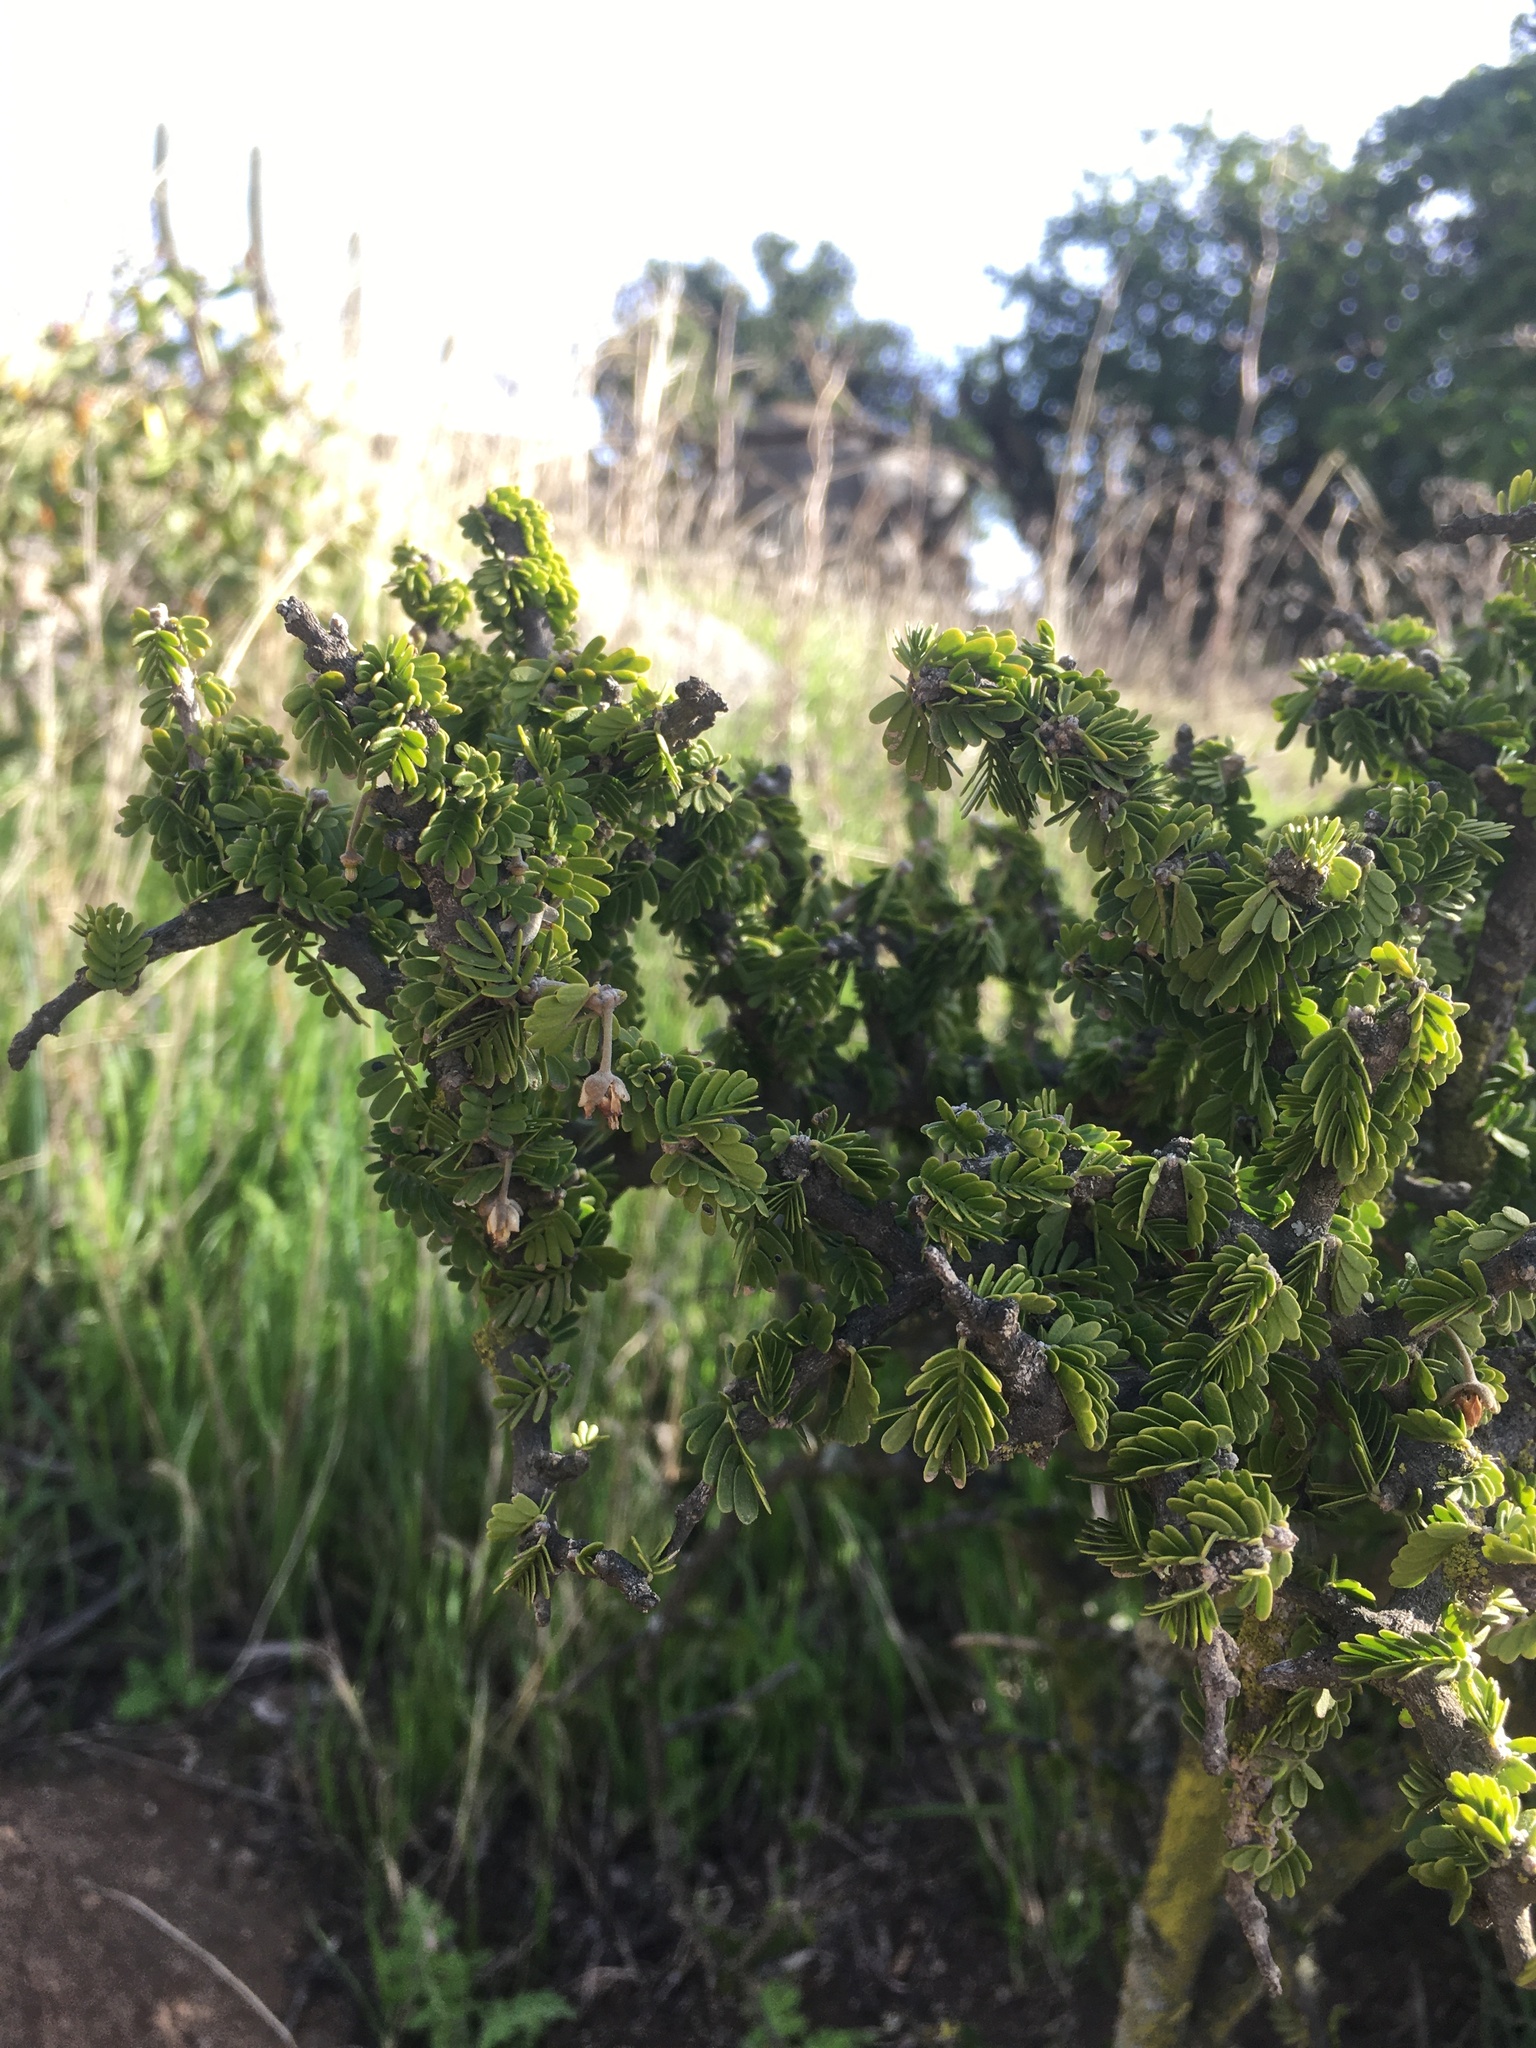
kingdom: Plantae
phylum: Tracheophyta
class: Magnoliopsida
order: Zygophyllales
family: Zygophyllaceae
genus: Porlieria
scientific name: Porlieria chilensis
